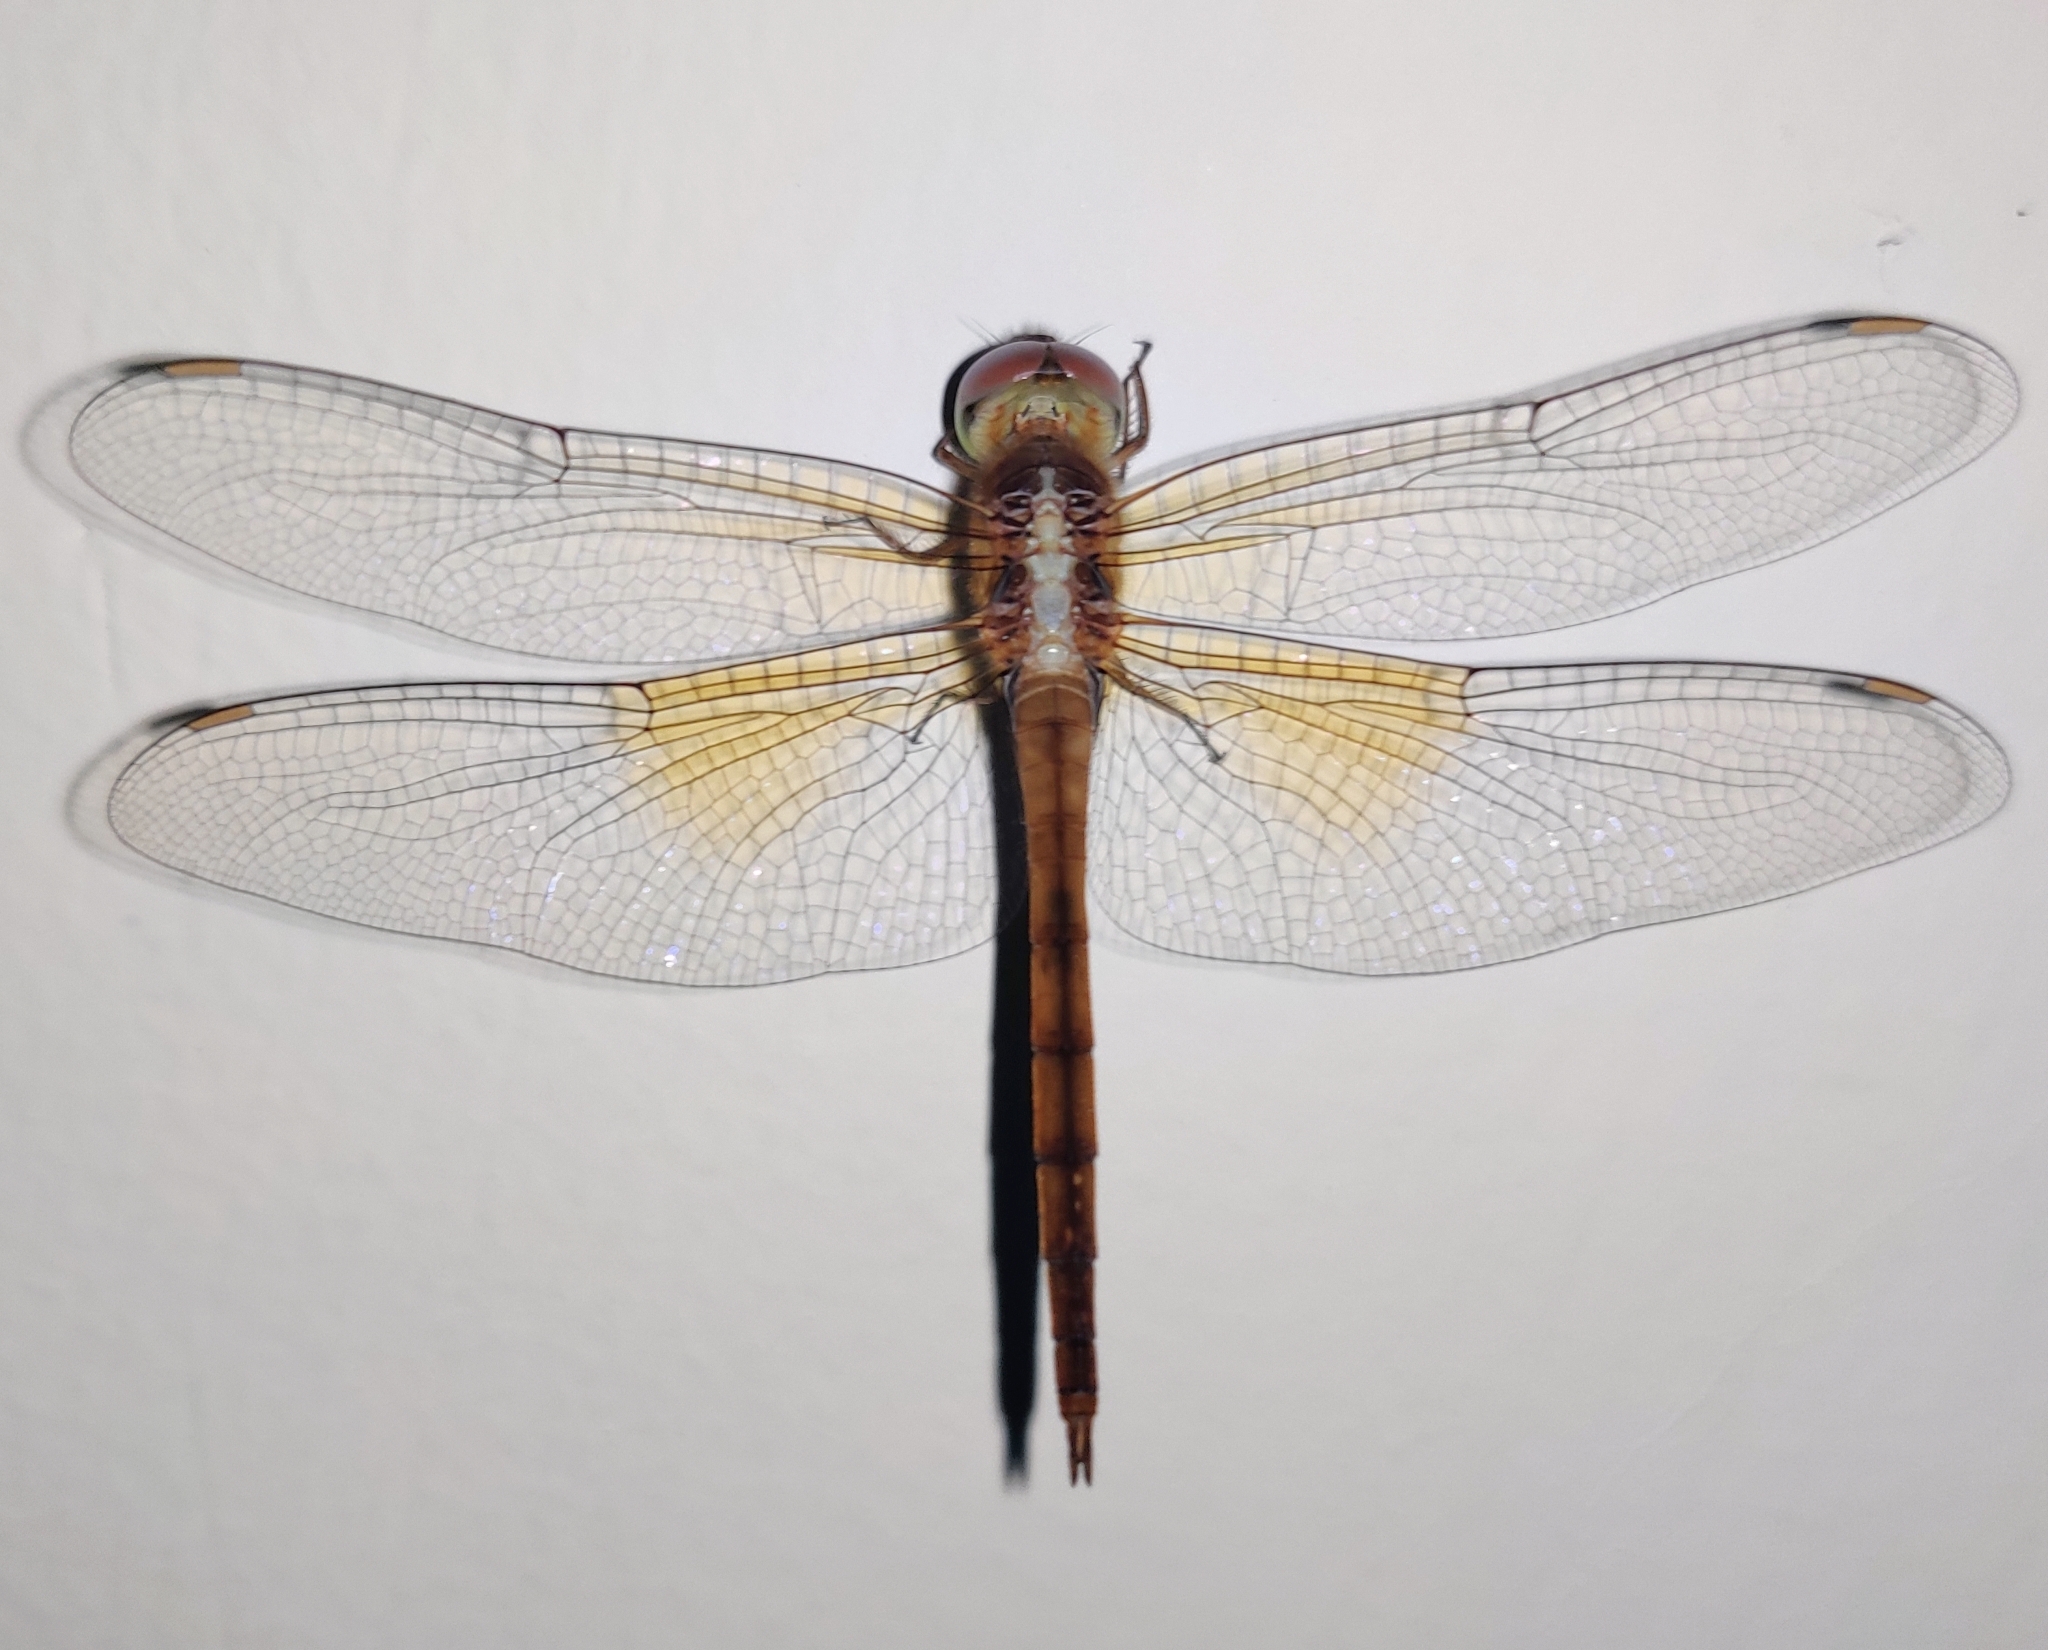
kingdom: Animalia
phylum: Arthropoda
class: Insecta
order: Odonata
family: Libellulidae
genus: Tholymis
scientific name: Tholymis tillarga
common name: Coral-tailed cloud wing
